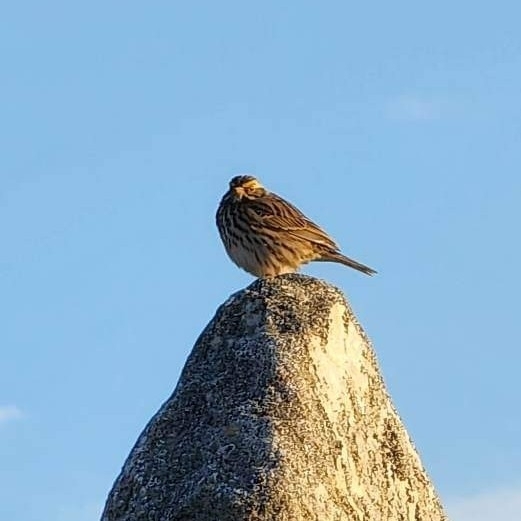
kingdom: Animalia
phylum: Chordata
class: Aves
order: Passeriformes
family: Passerellidae
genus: Passerculus
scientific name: Passerculus sandwichensis
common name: Savannah sparrow
